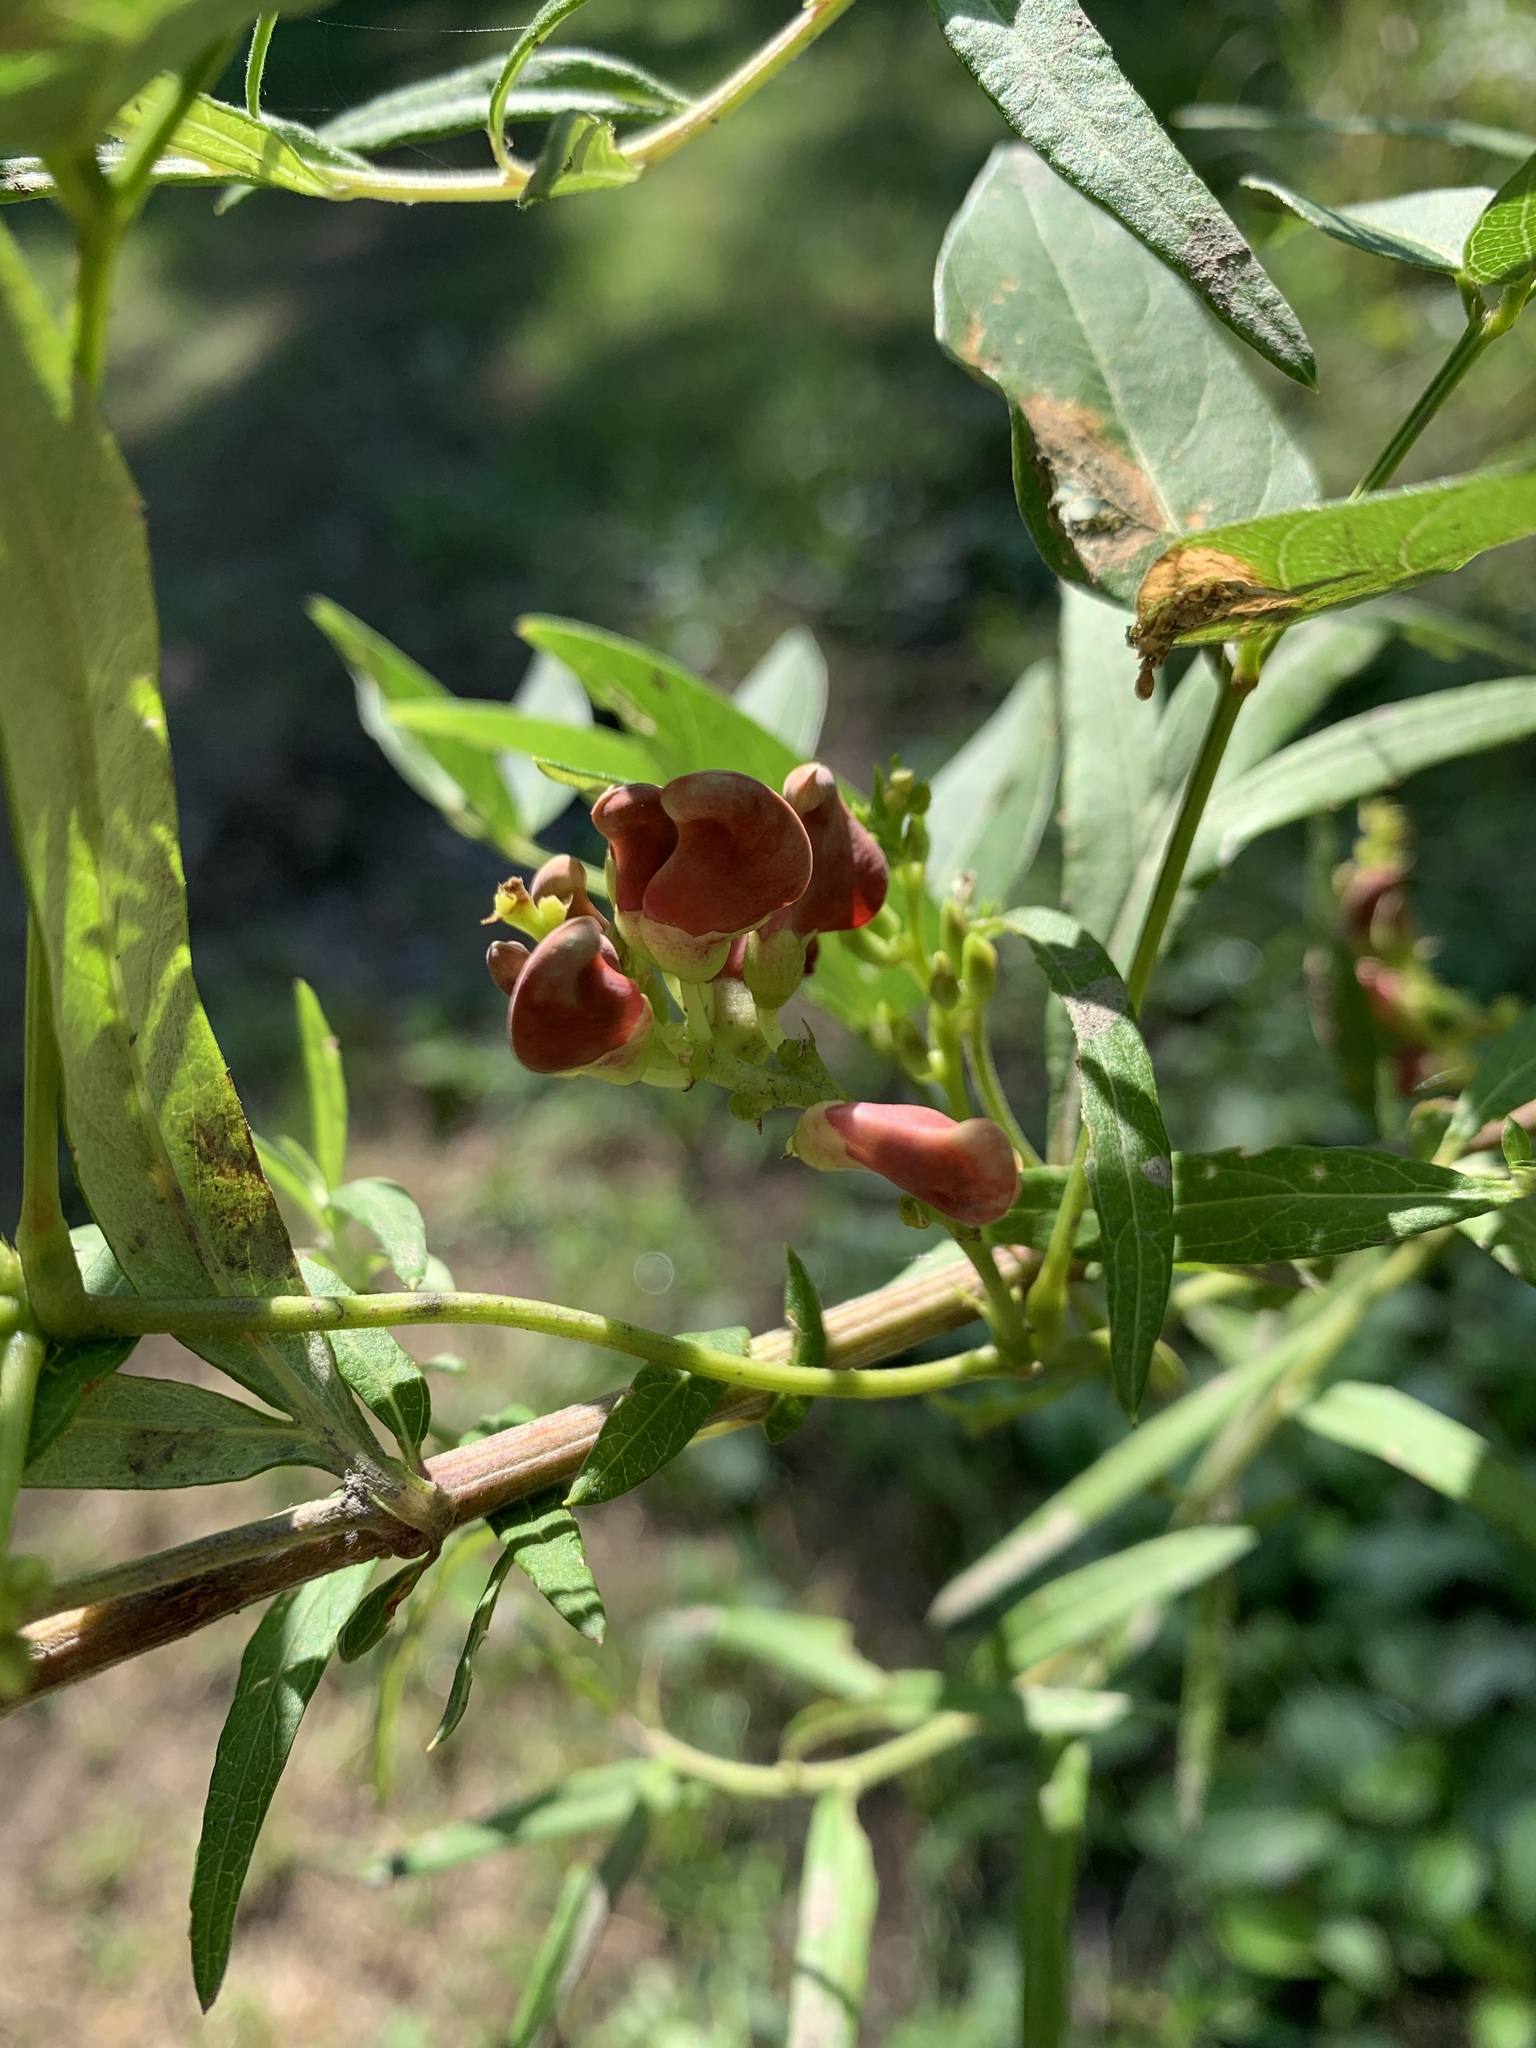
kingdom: Plantae
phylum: Tracheophyta
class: Magnoliopsida
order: Fabales
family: Fabaceae
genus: Apios
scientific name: Apios americana
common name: American potato-bean
